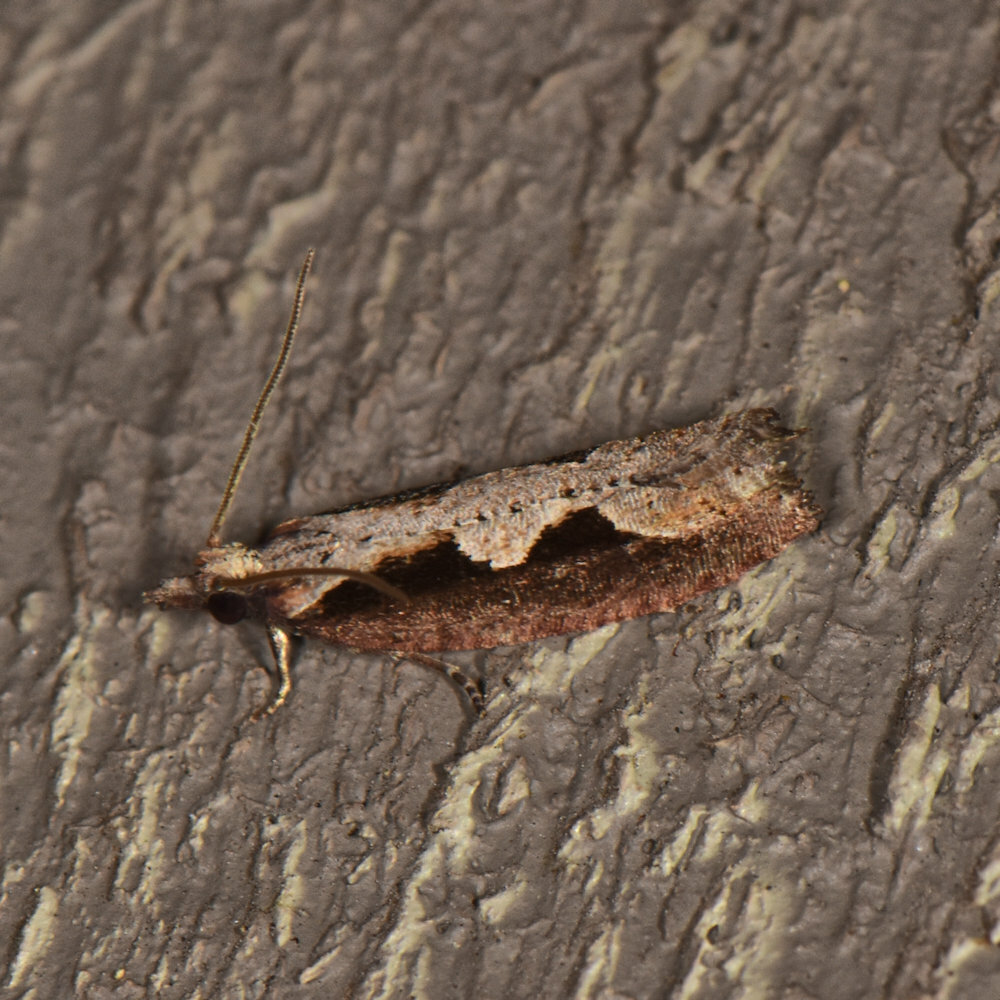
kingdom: Animalia
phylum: Arthropoda
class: Insecta
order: Lepidoptera
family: Tortricidae
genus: Epinotia
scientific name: Epinotia lindana
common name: Diamondback epinotia moth
